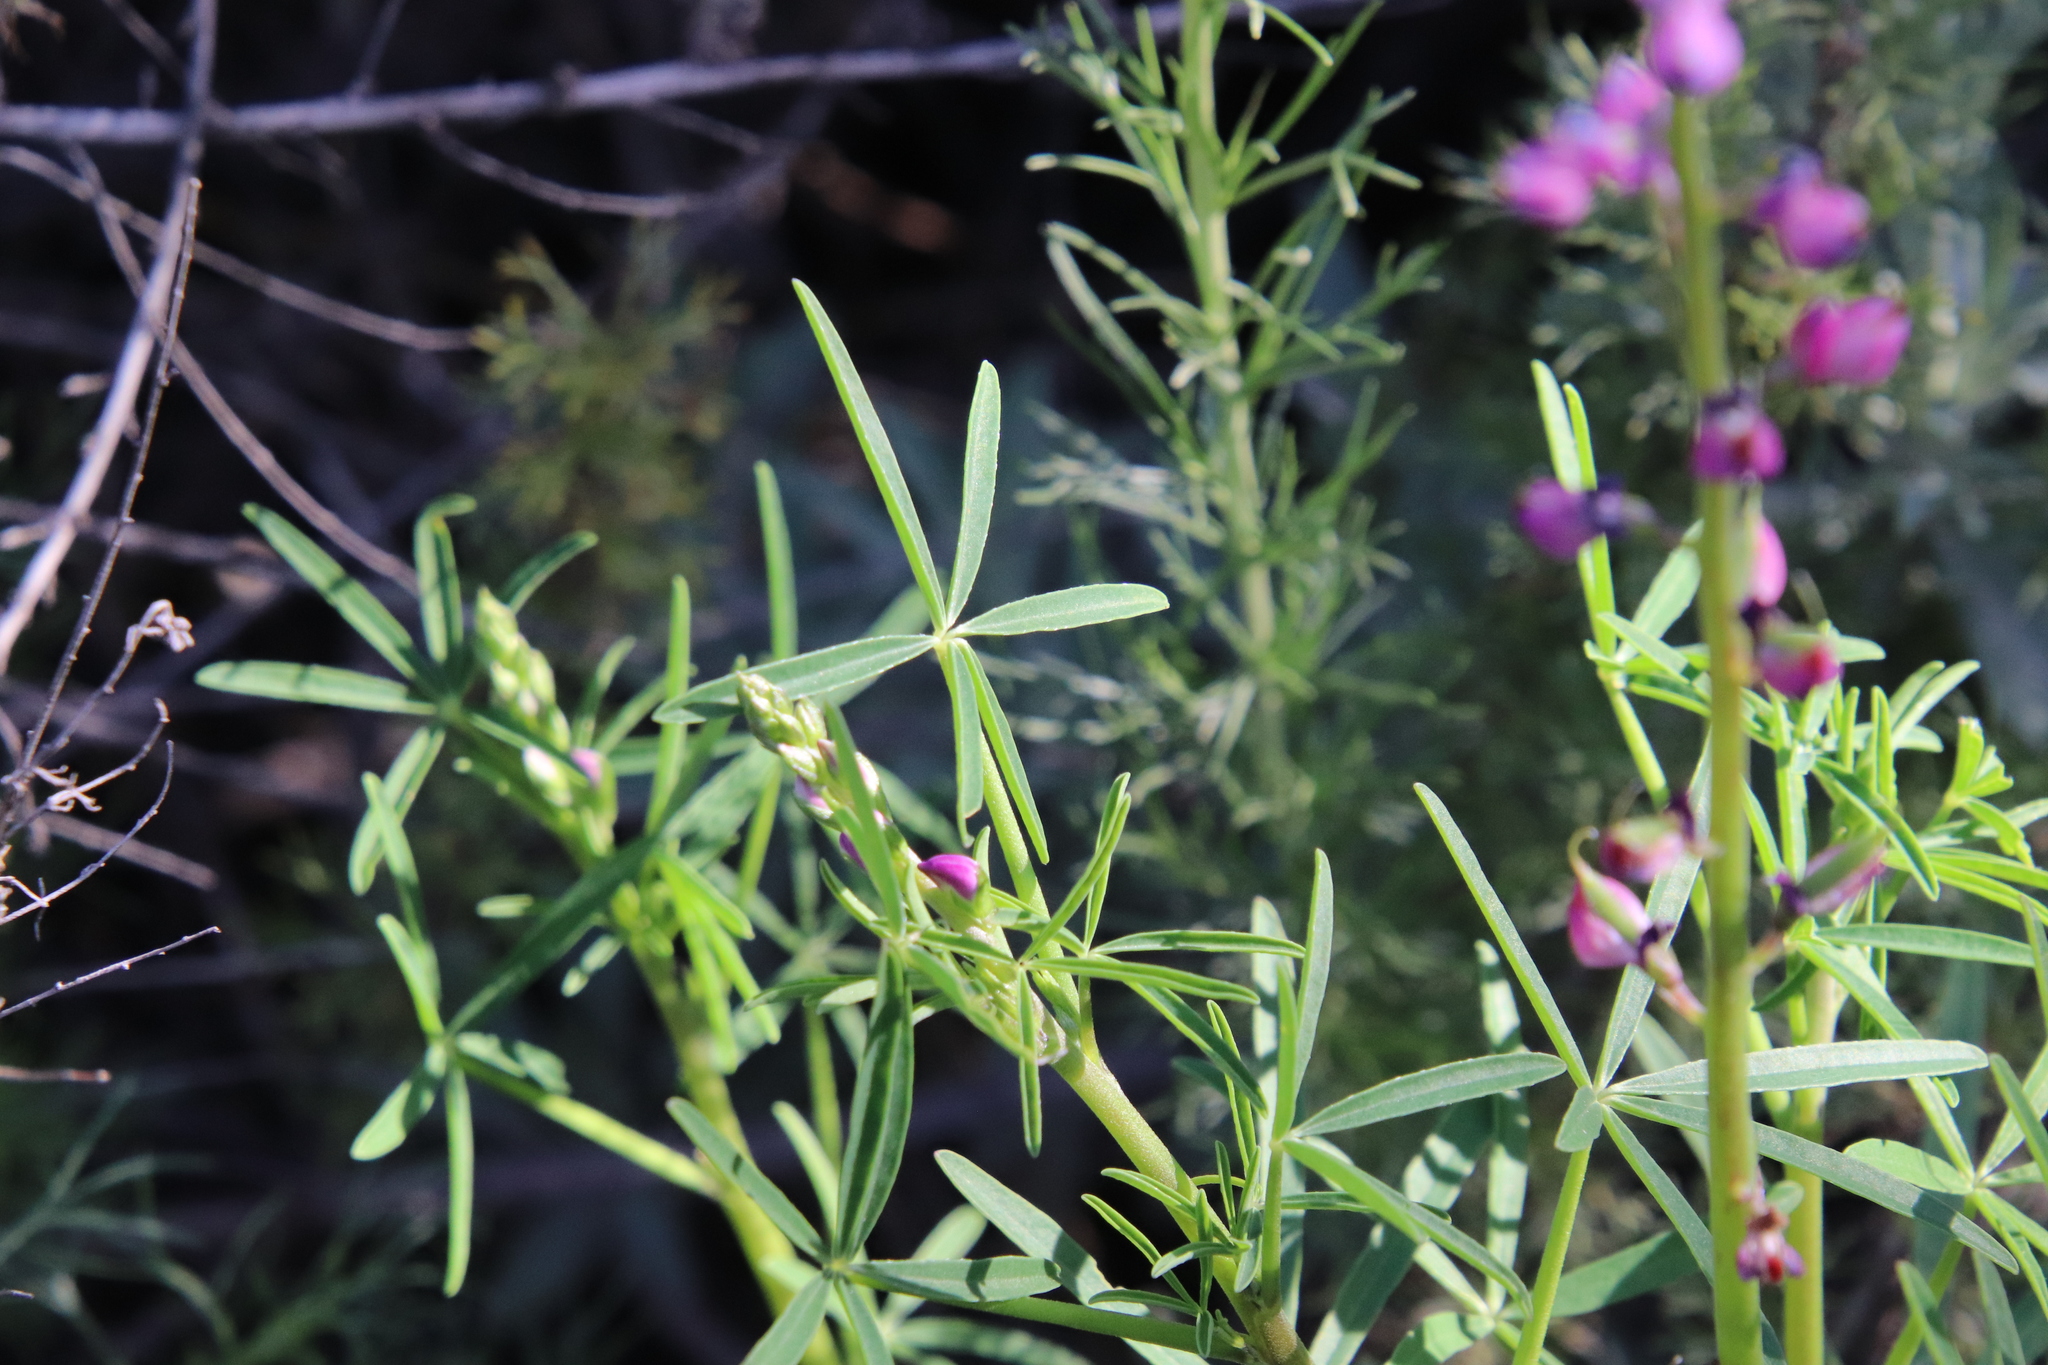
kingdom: Plantae
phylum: Tracheophyta
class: Magnoliopsida
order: Fabales
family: Fabaceae
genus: Lupinus
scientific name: Lupinus truncatus
